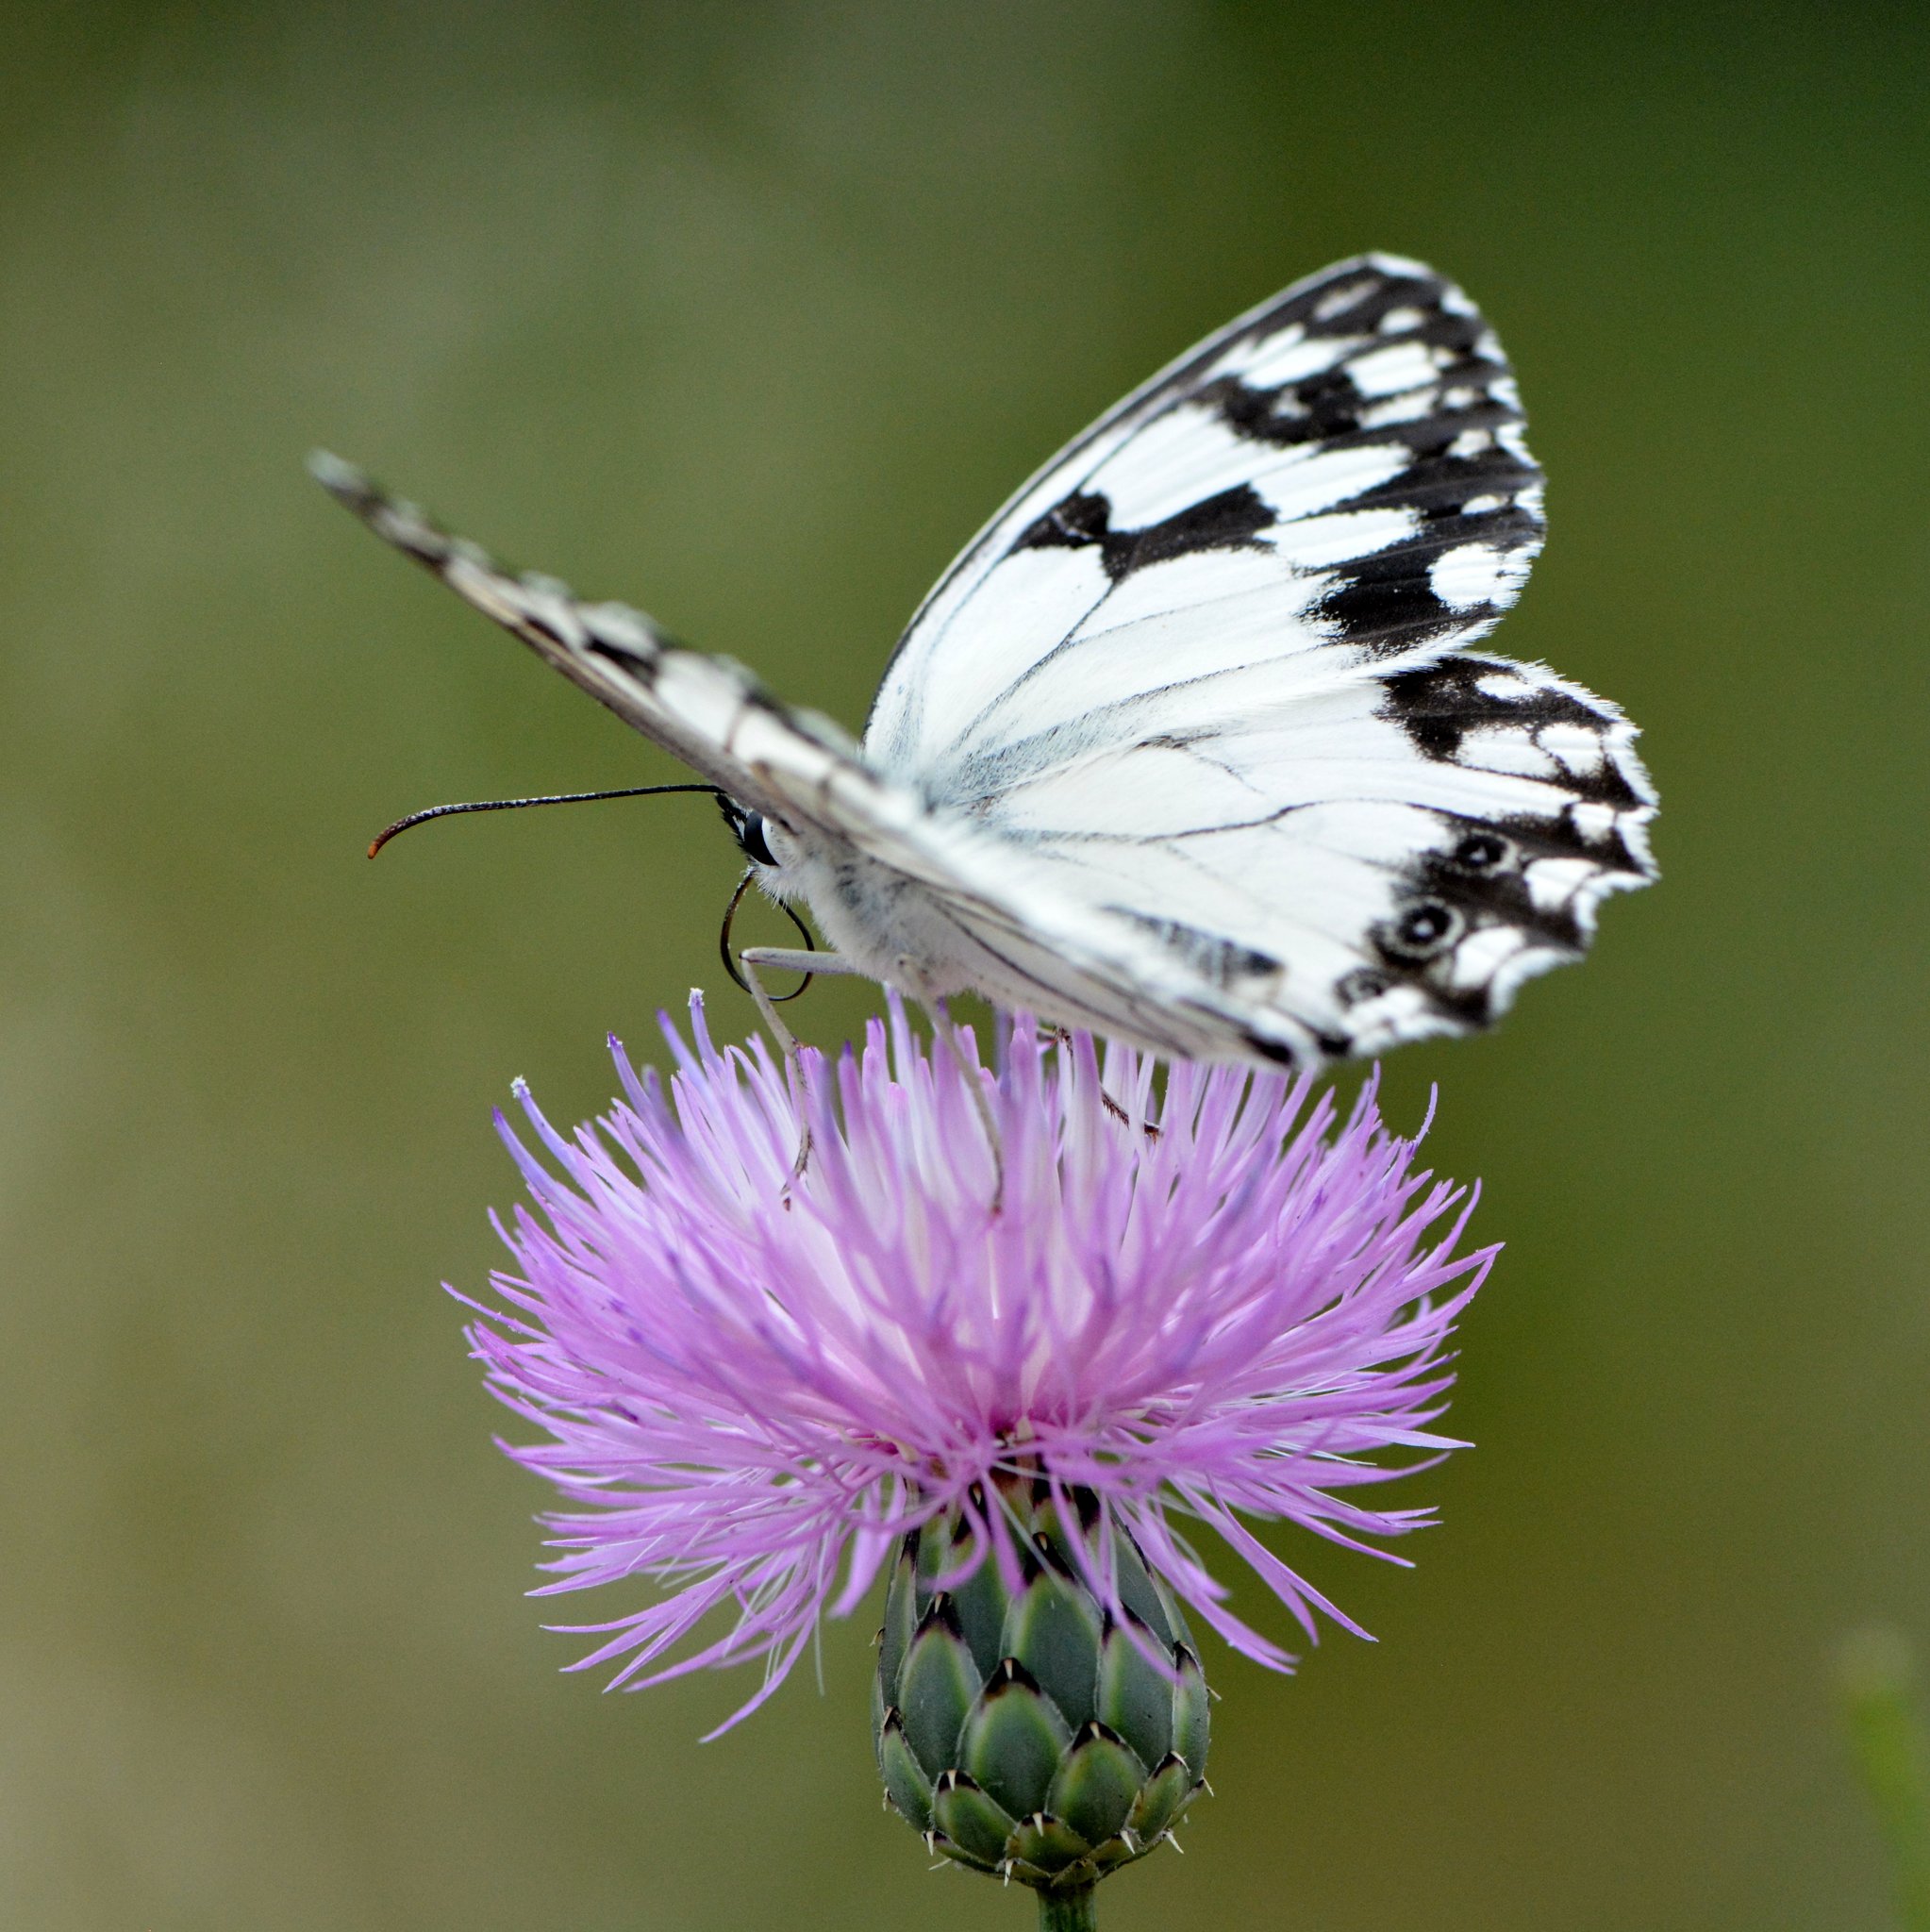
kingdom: Animalia
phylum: Arthropoda
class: Insecta
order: Lepidoptera
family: Nymphalidae
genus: Melanargia
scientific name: Melanargia lachesis
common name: Iberian marbled white
